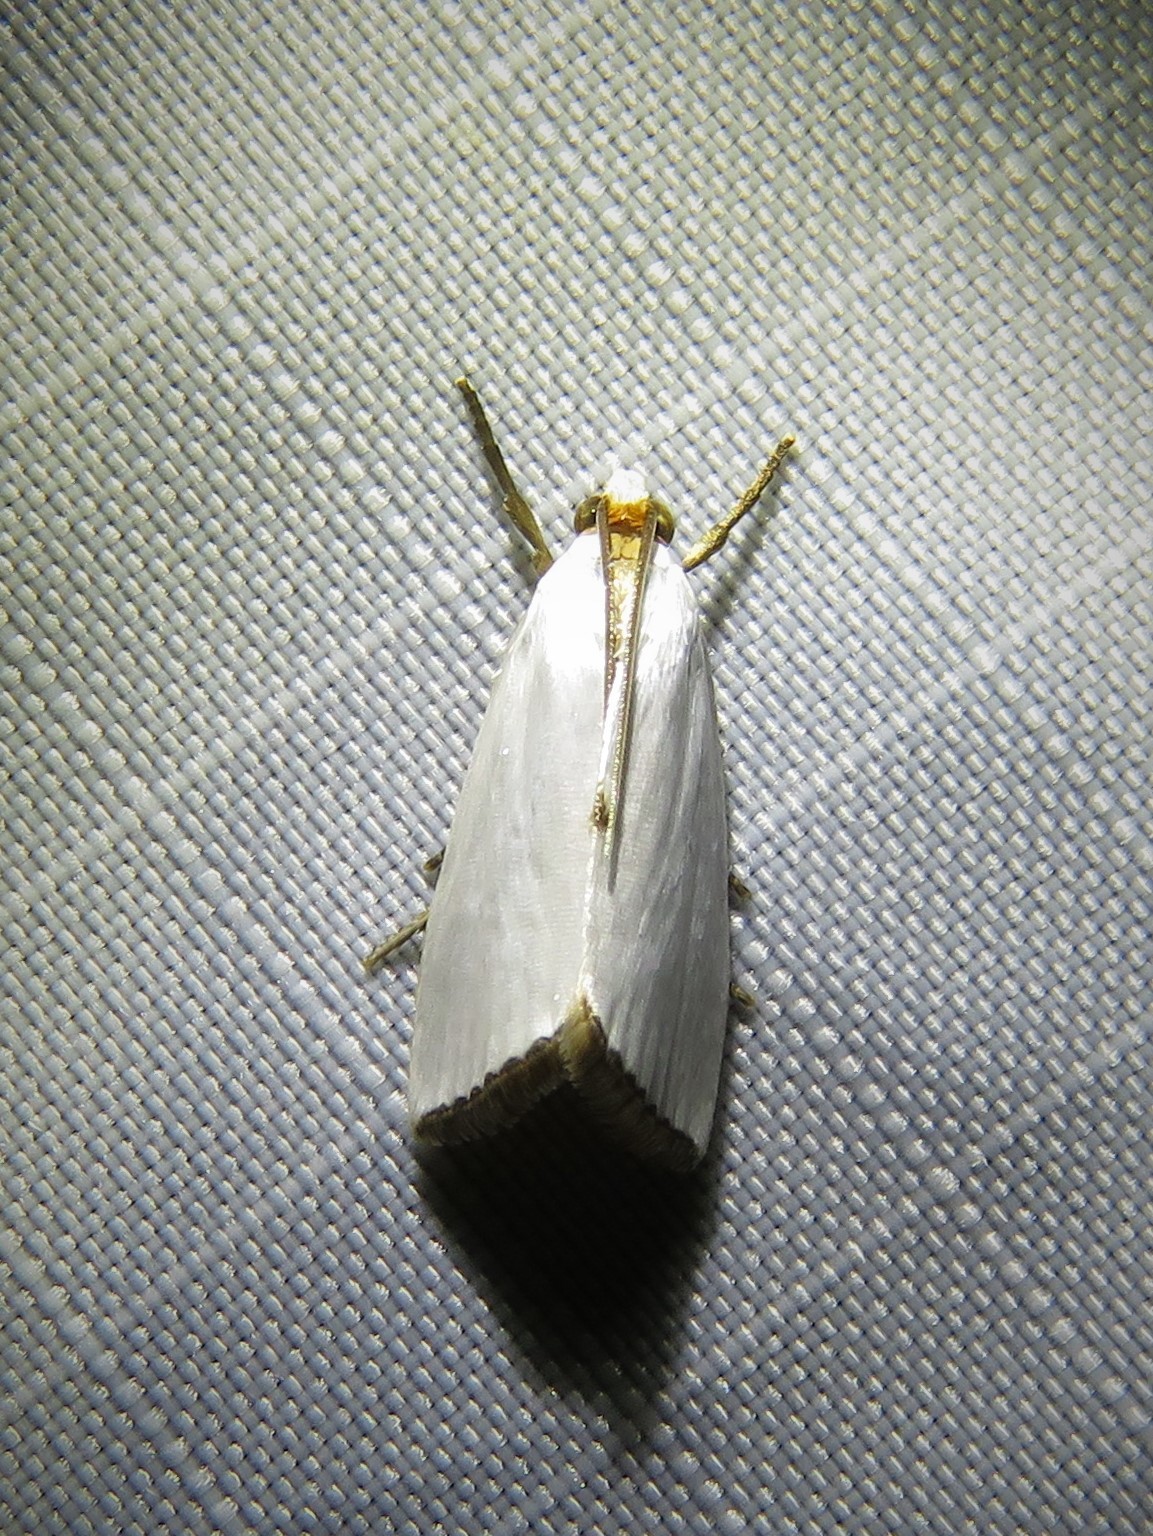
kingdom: Animalia
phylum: Arthropoda
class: Insecta
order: Lepidoptera
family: Crambidae
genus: Argyria
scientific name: Argyria nivalis
